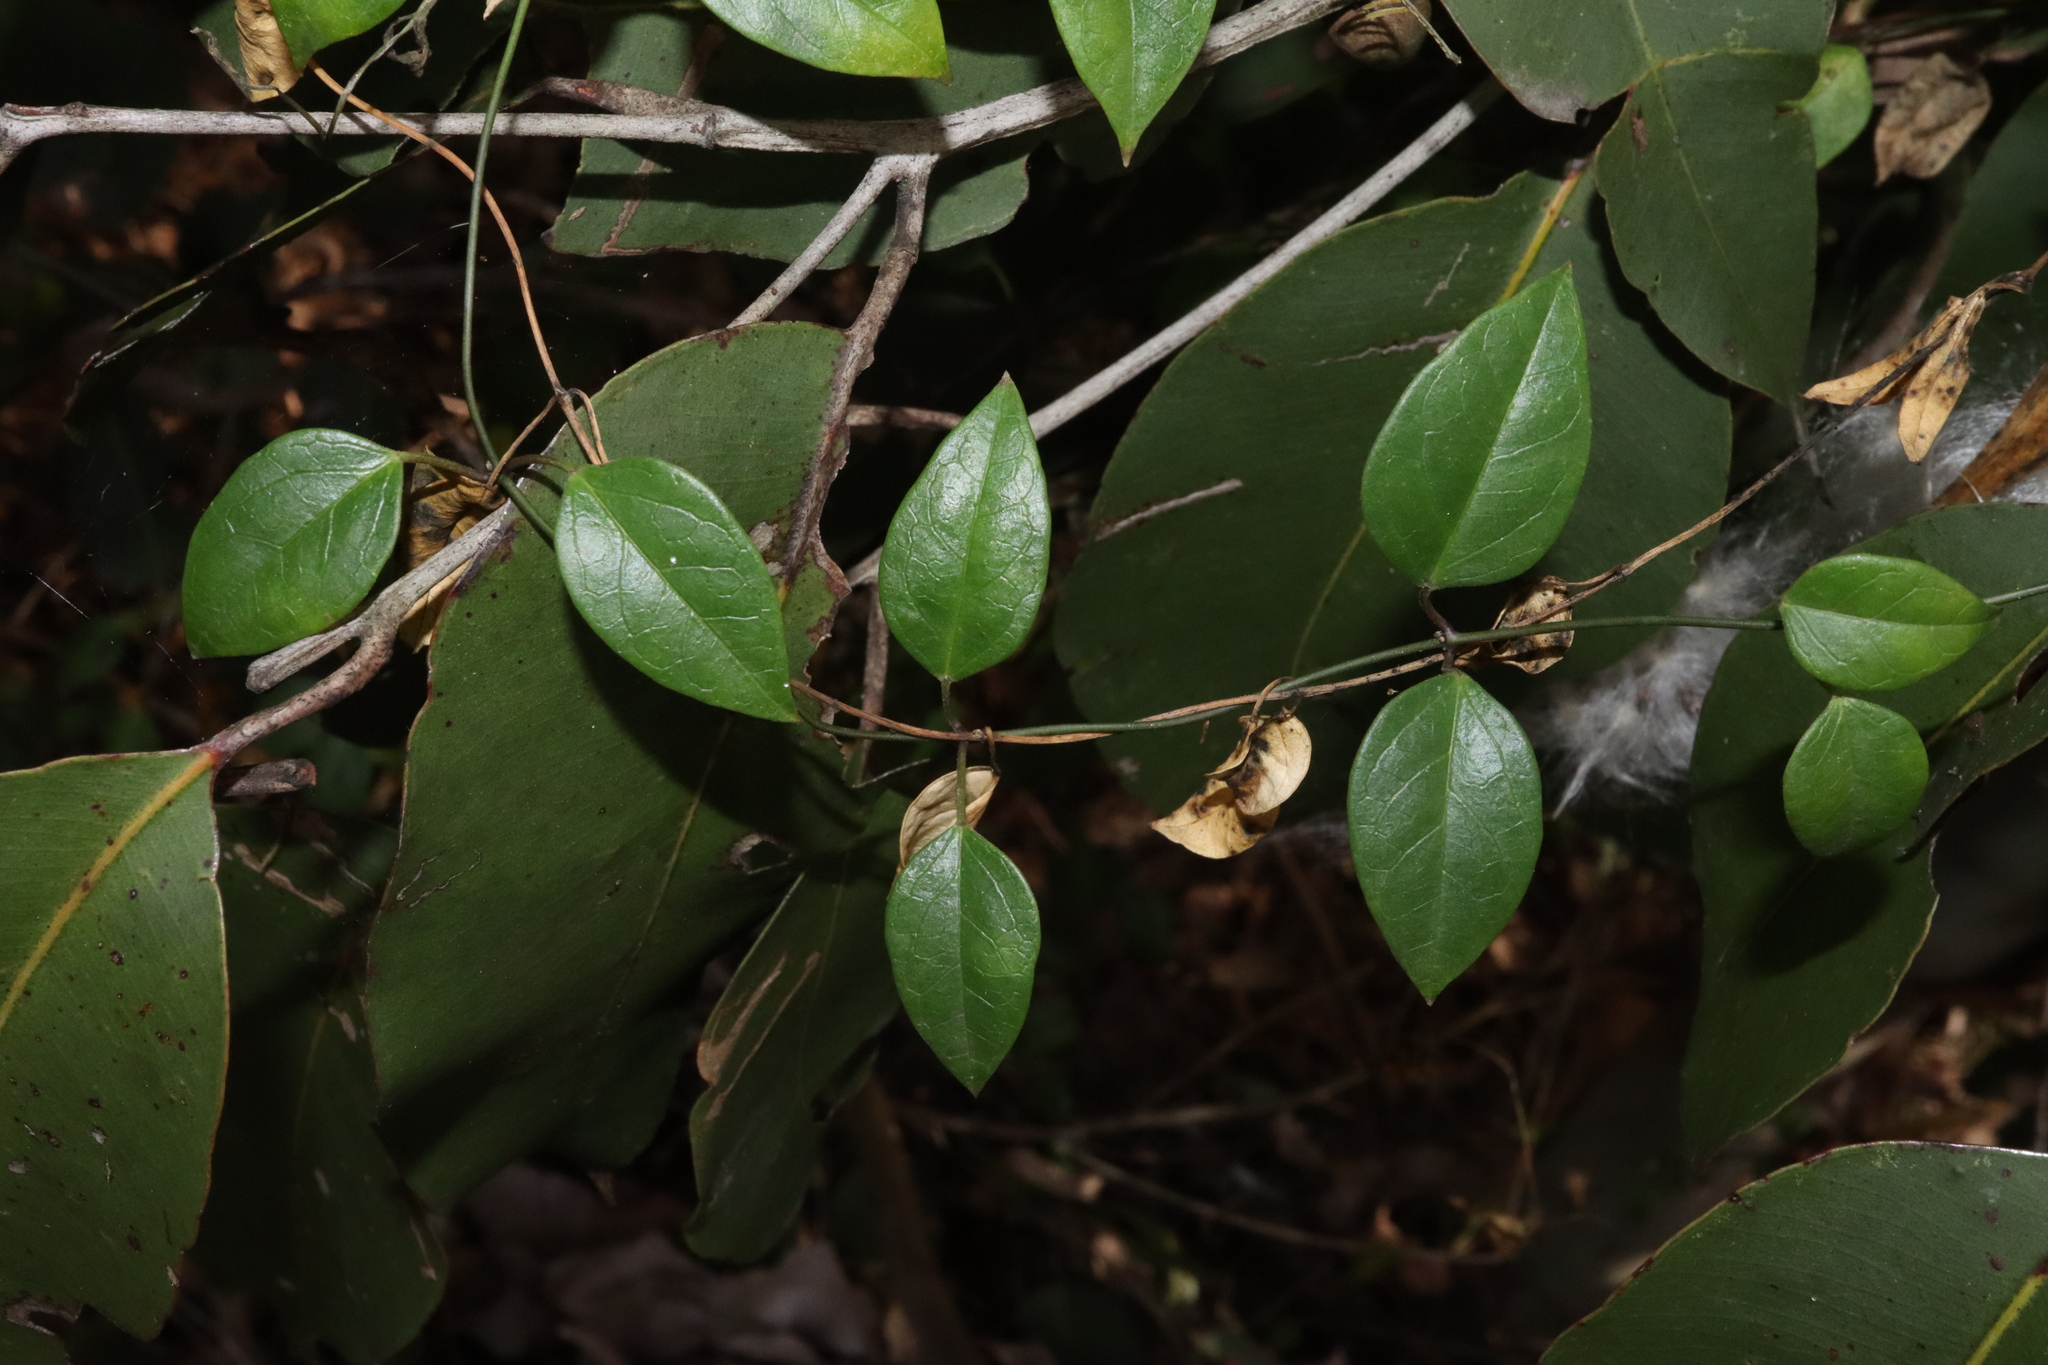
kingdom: Plantae
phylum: Tracheophyta
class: Magnoliopsida
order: Gentianales
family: Apocynaceae
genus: Vincetoxicum
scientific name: Vincetoxicum barbatum
